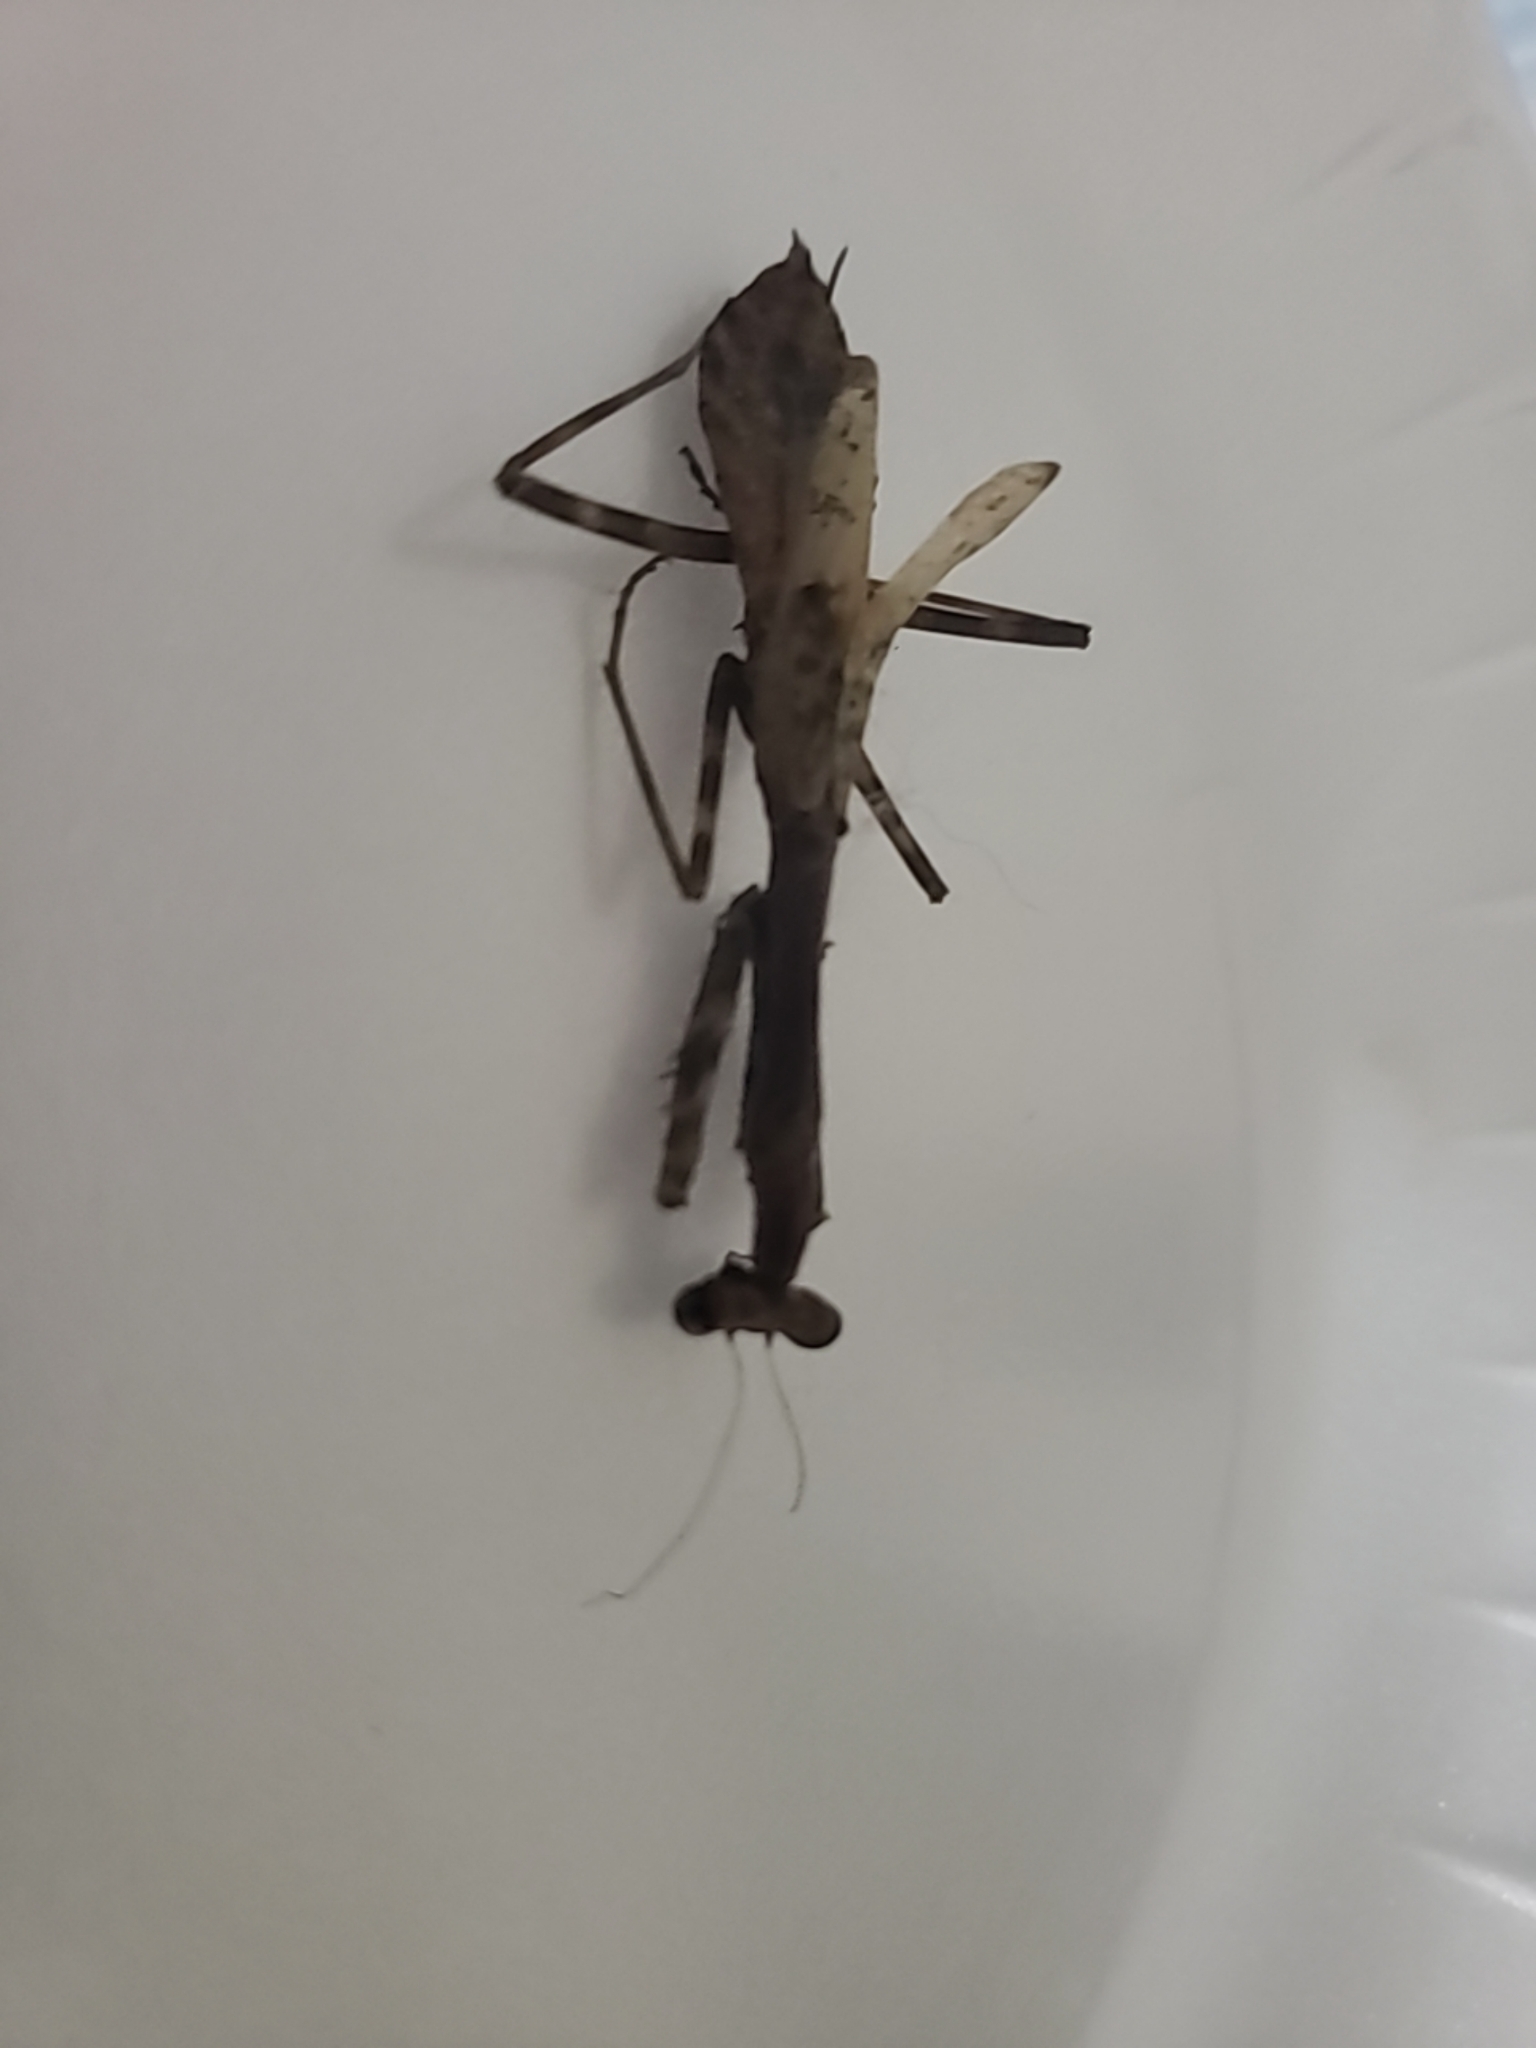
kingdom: Animalia
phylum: Arthropoda
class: Insecta
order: Mantodea
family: Mantidae
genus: Stagmomantis
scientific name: Stagmomantis carolina
